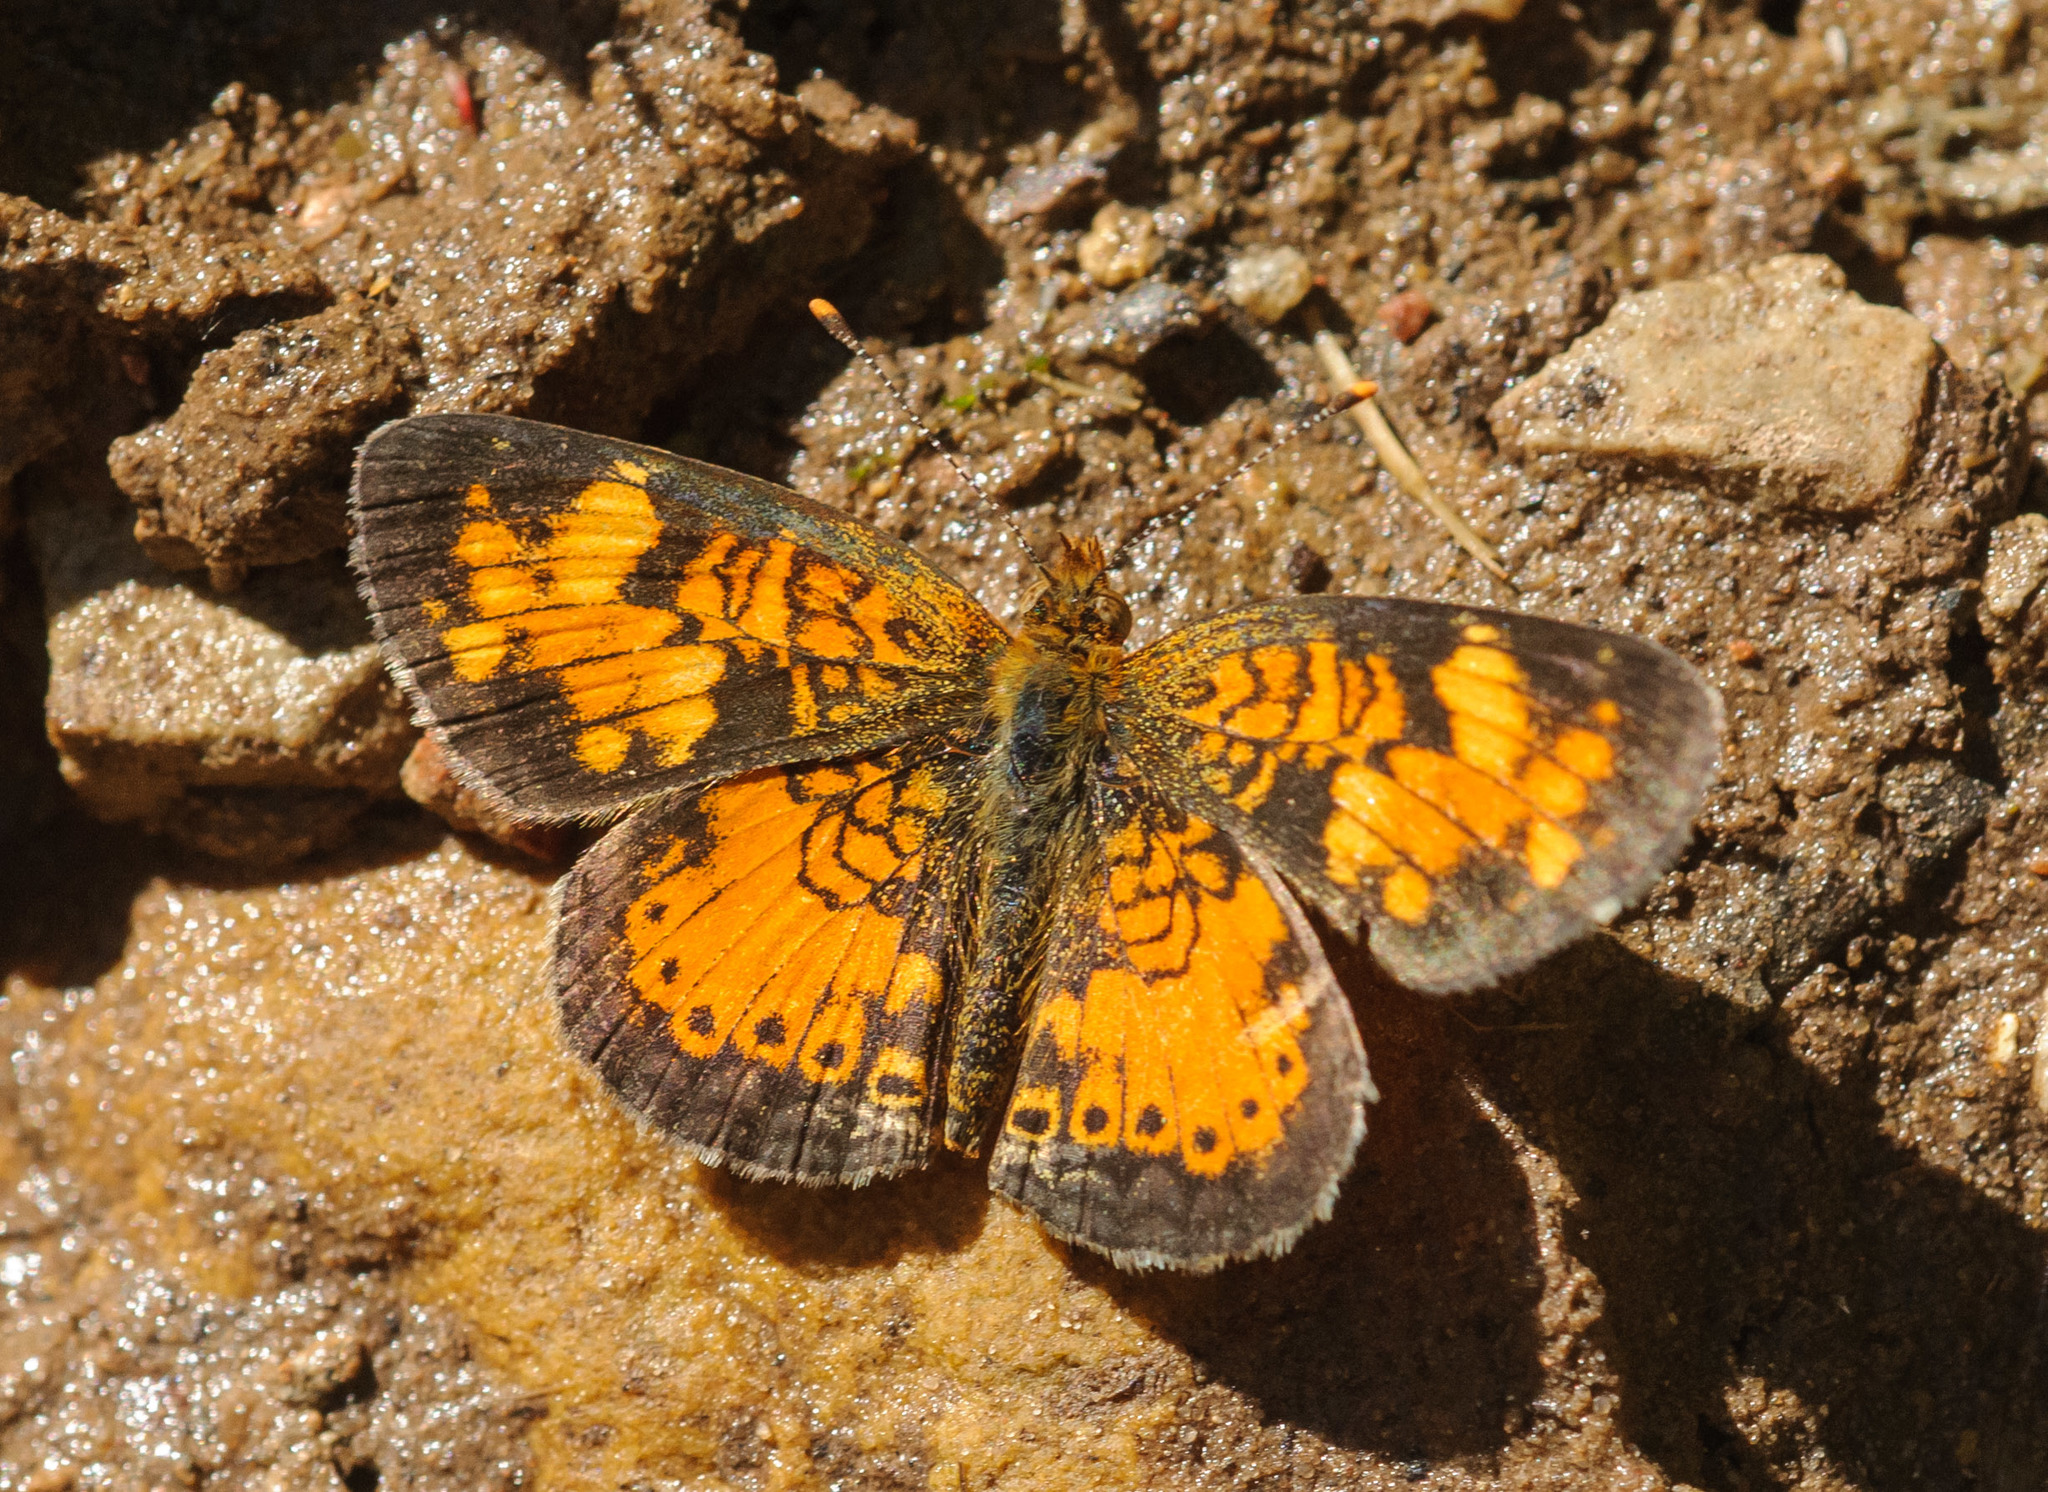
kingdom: Animalia
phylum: Arthropoda
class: Insecta
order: Lepidoptera
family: Nymphalidae
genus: Phyciodes
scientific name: Phyciodes tharos
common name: Pearl crescent
